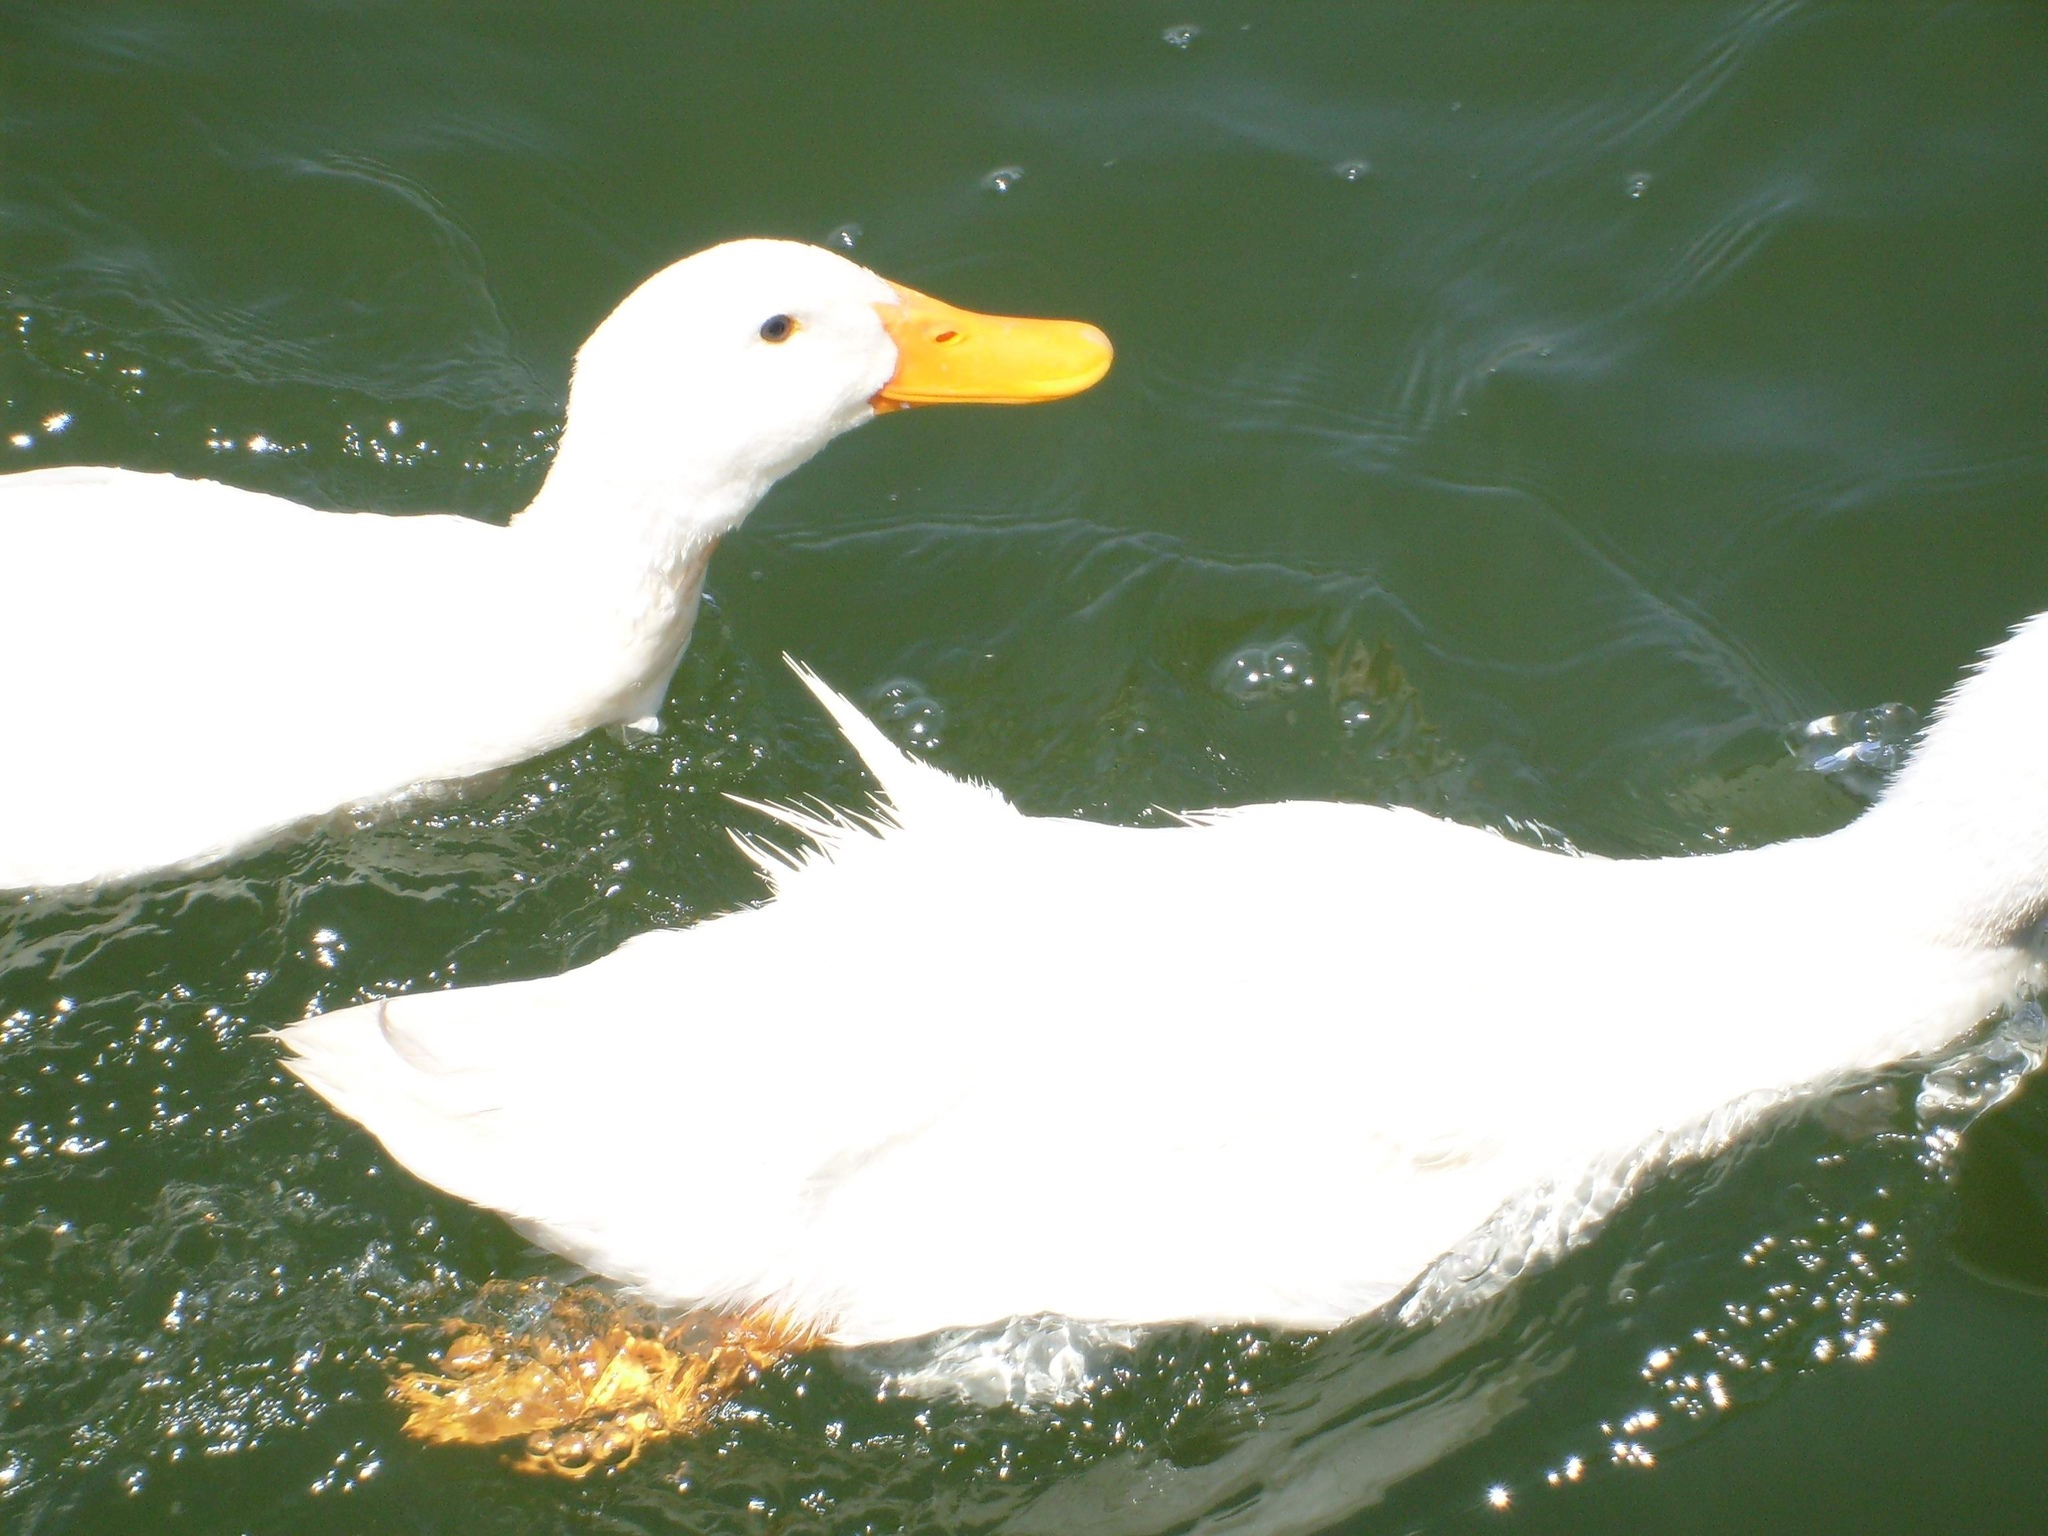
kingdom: Animalia
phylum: Chordata
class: Aves
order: Anseriformes
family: Anatidae
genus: Anas
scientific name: Anas platyrhynchos
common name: Mallard
